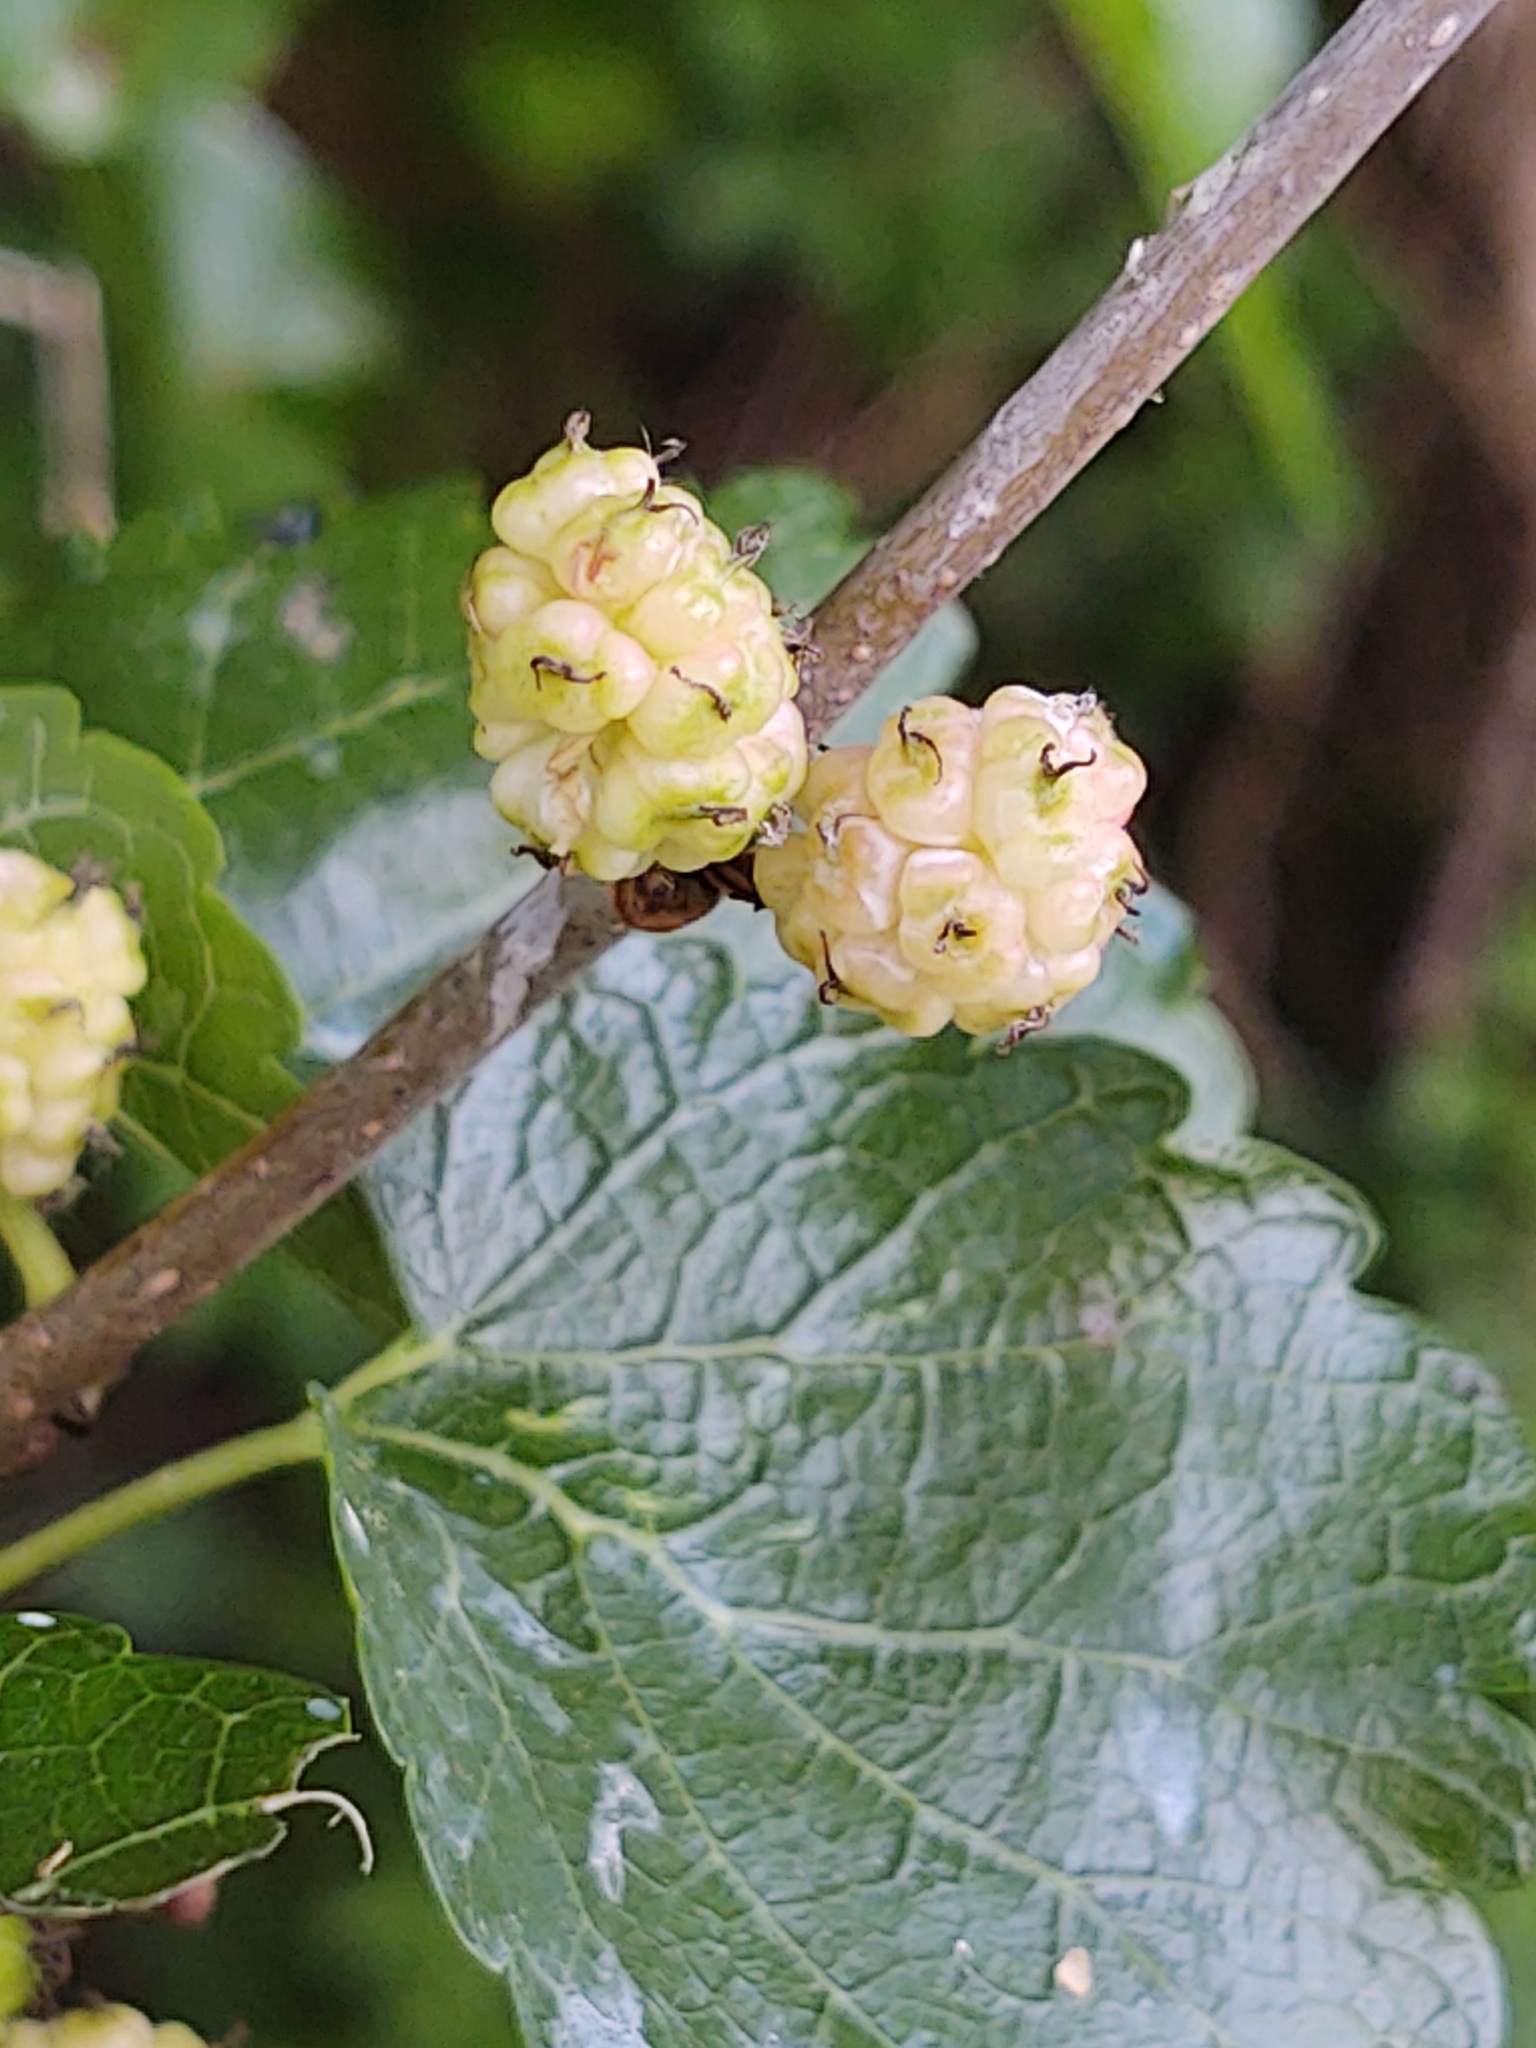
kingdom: Plantae
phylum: Tracheophyta
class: Magnoliopsida
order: Rosales
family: Moraceae
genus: Morus
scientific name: Morus alba
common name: White mulberry
